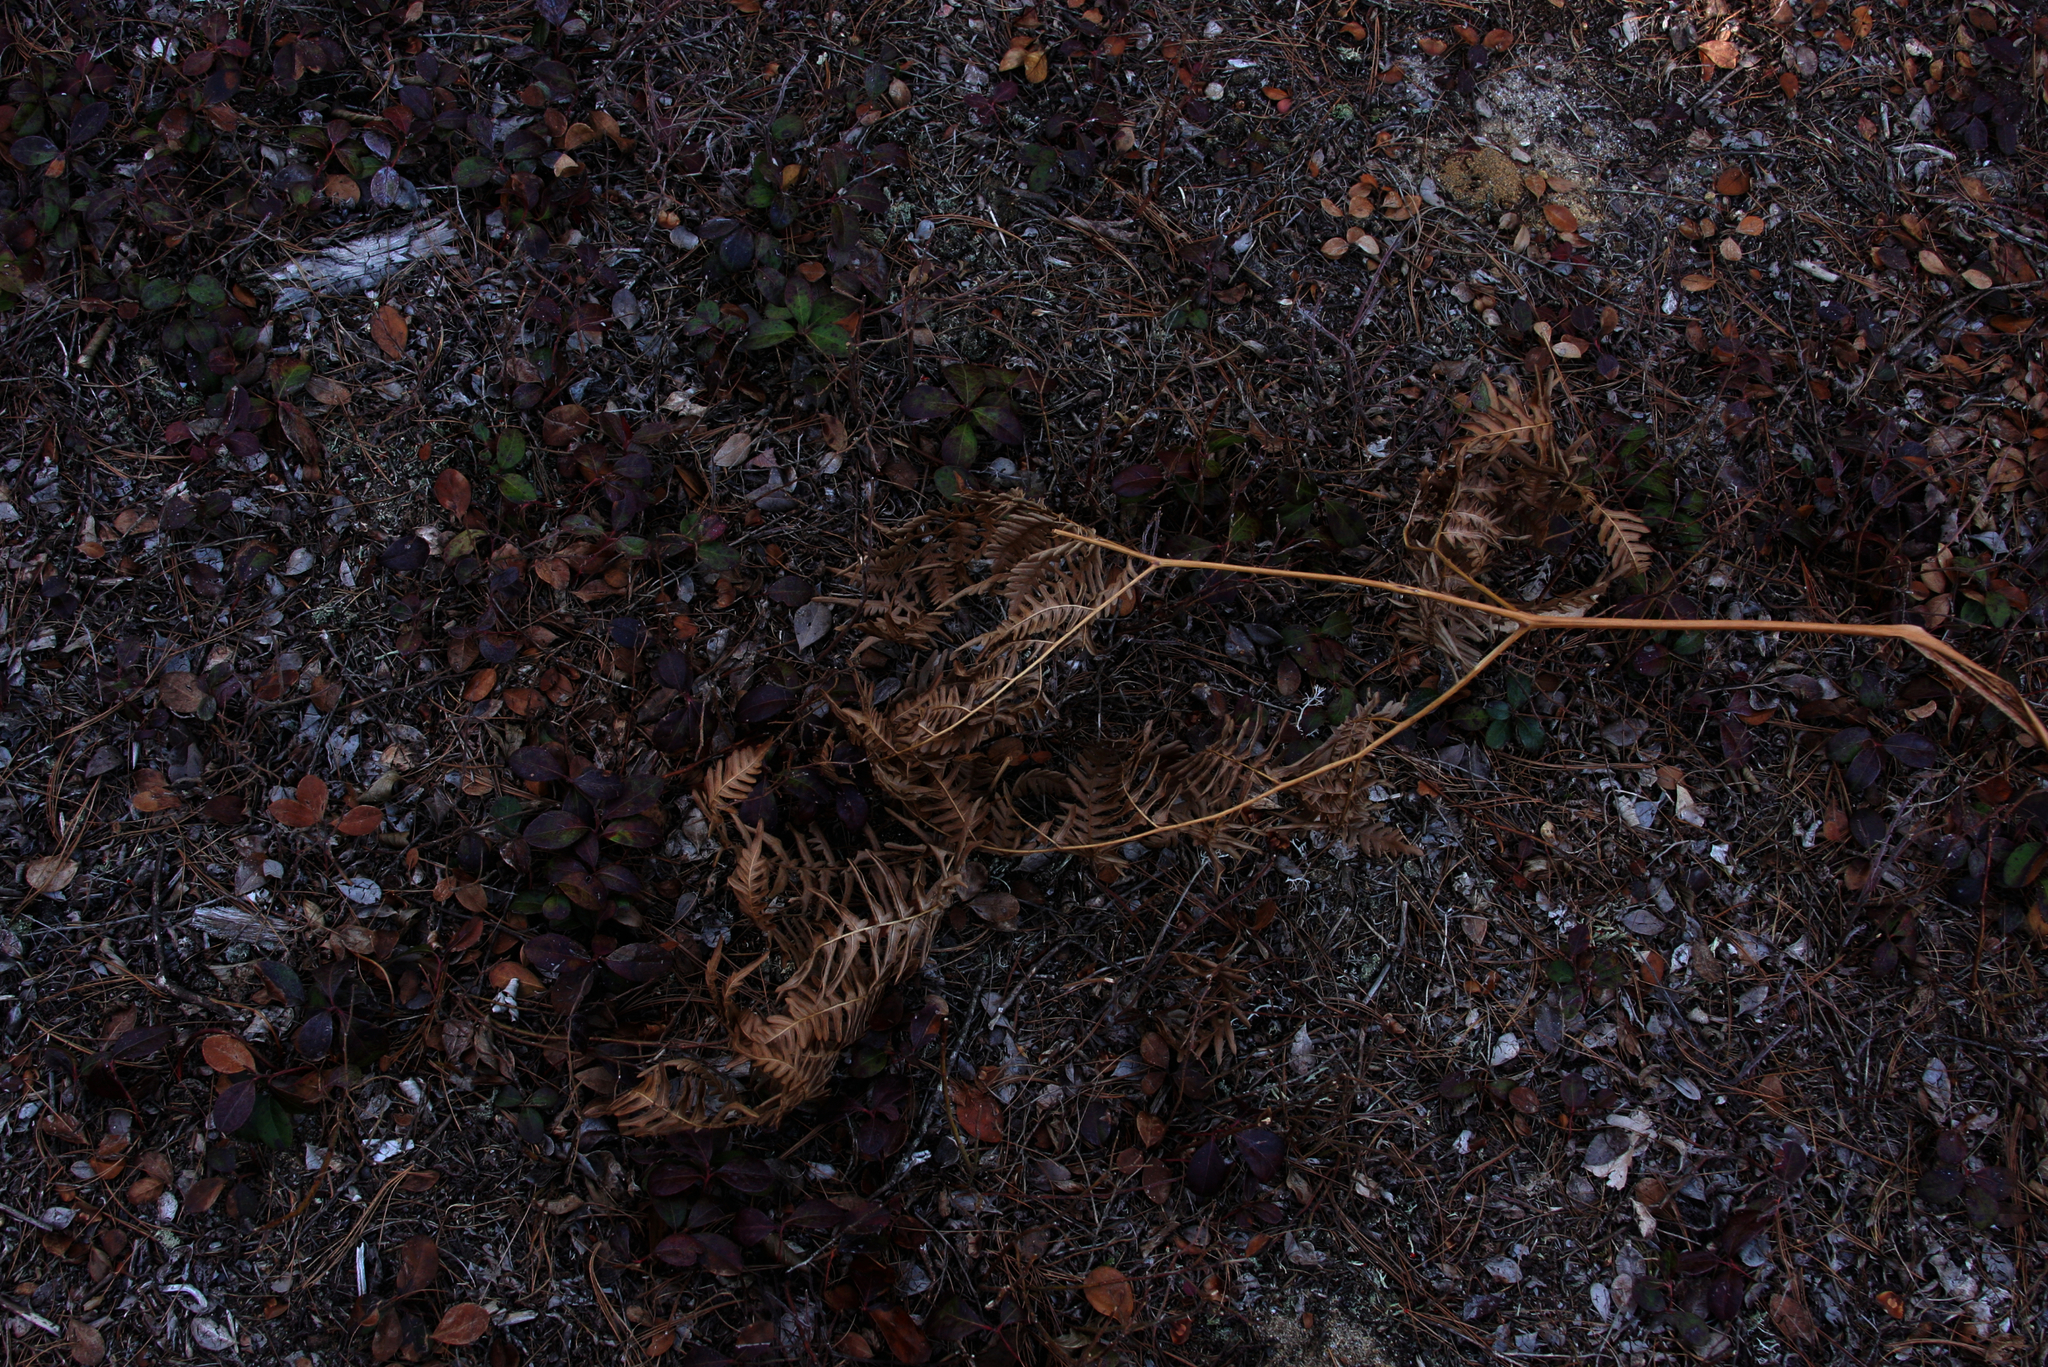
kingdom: Plantae
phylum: Tracheophyta
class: Magnoliopsida
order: Ericales
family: Ericaceae
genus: Gaultheria
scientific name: Gaultheria procumbens
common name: Checkerberry
